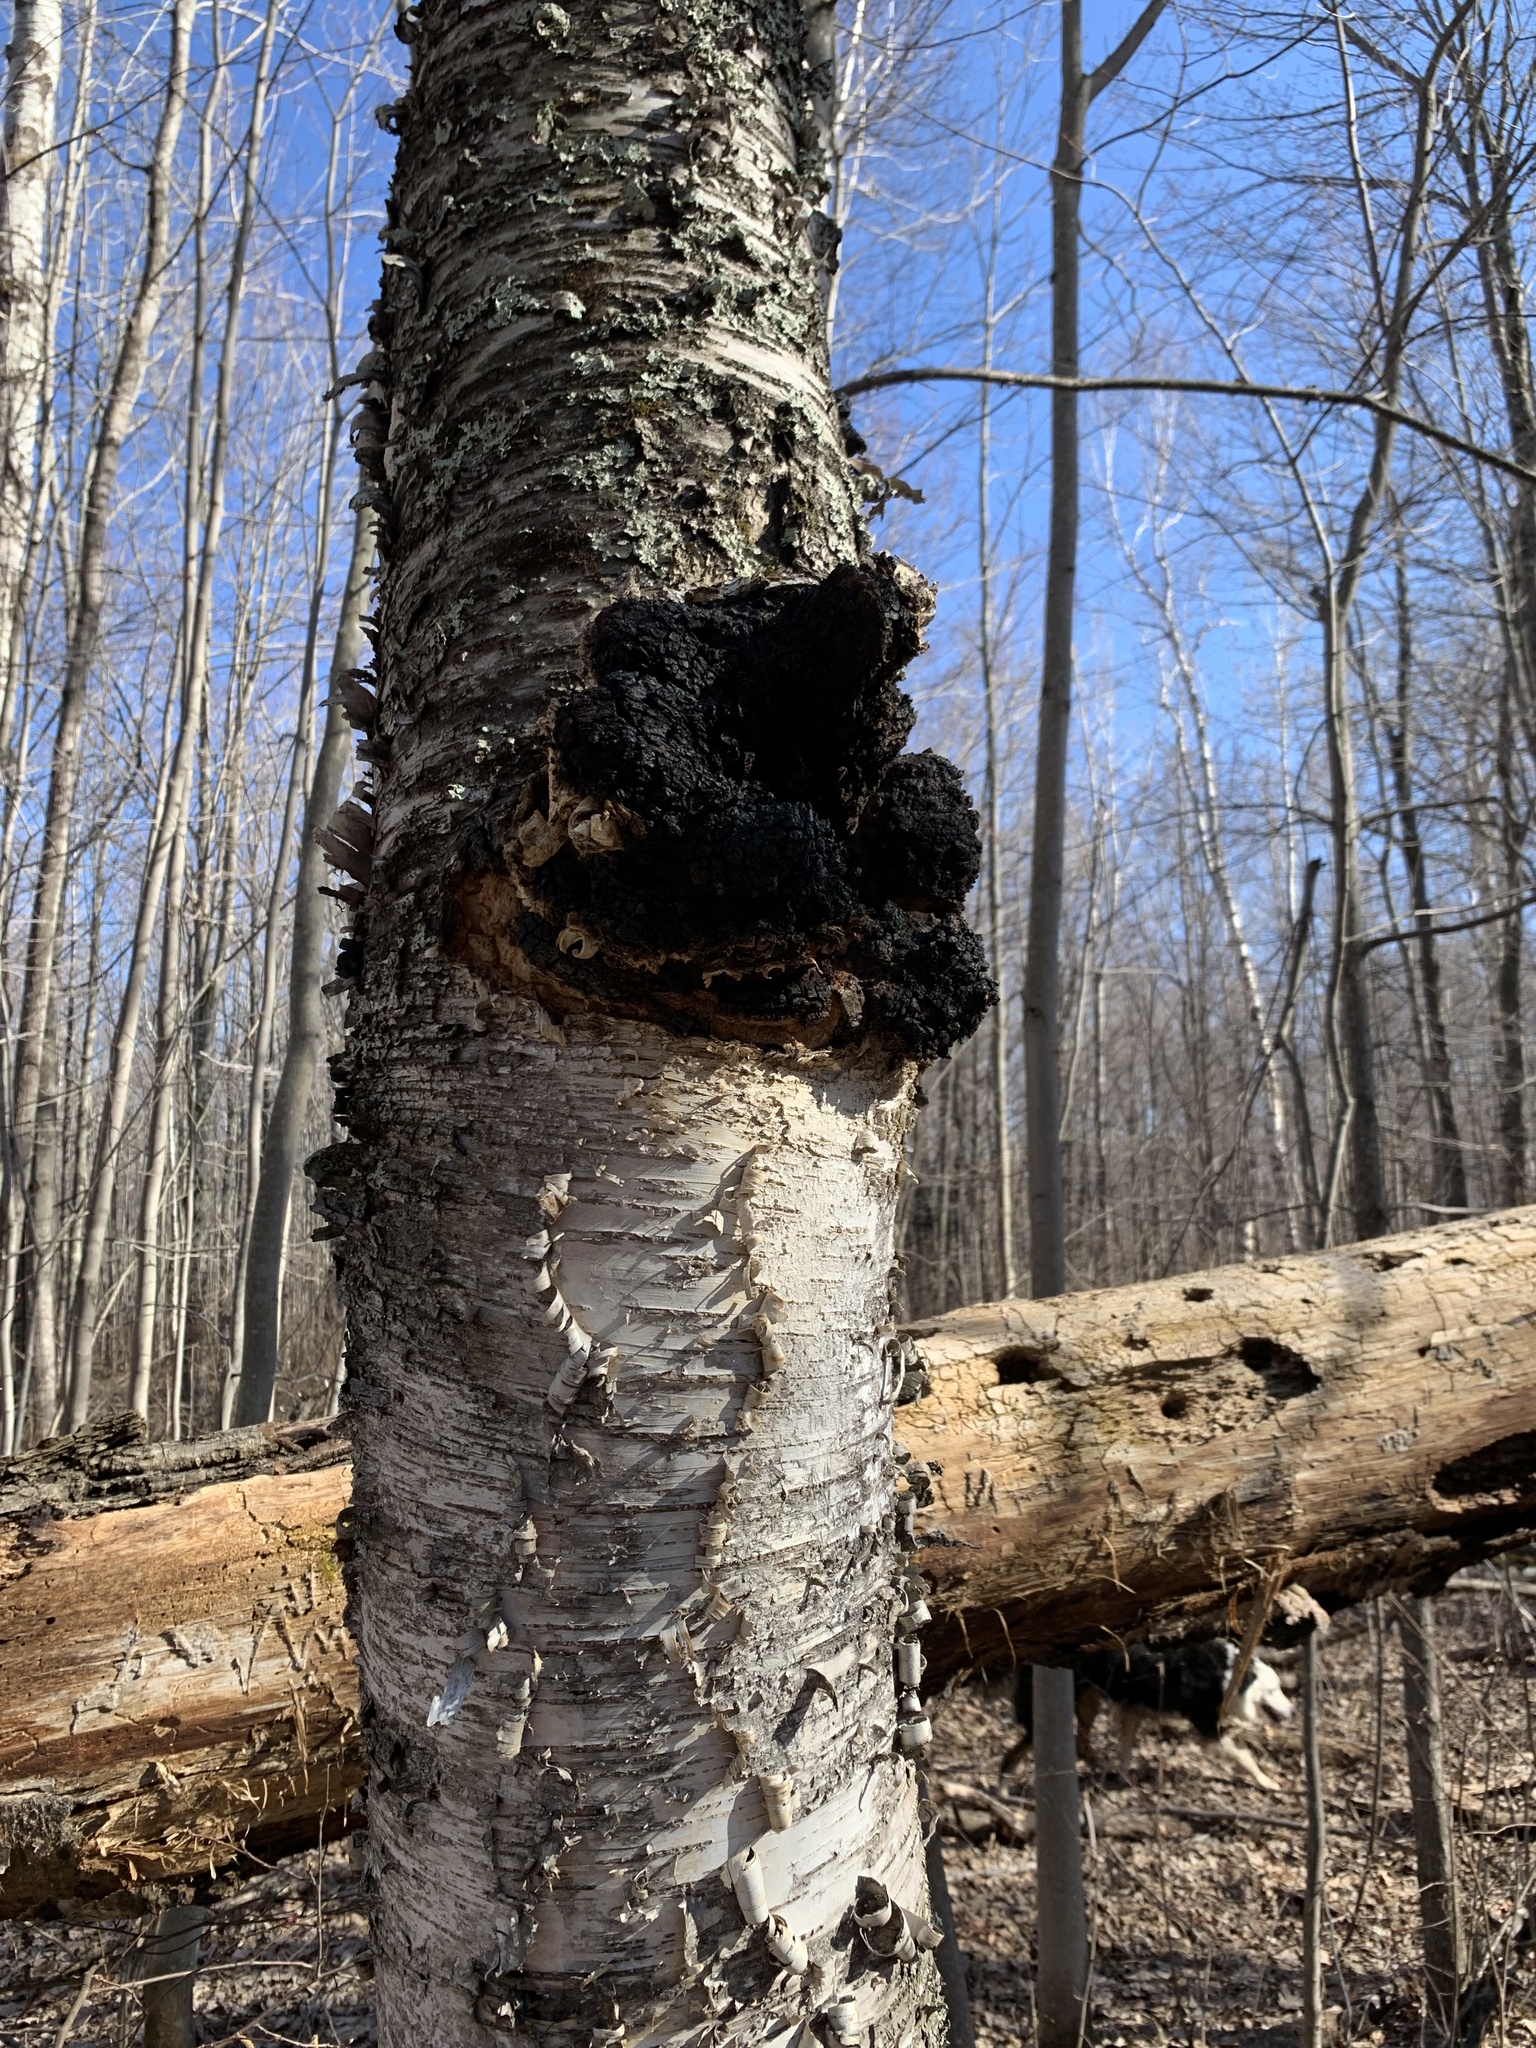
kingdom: Fungi
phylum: Basidiomycota
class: Agaricomycetes
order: Hymenochaetales
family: Hymenochaetaceae
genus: Inonotus
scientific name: Inonotus obliquus
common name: Chaga
